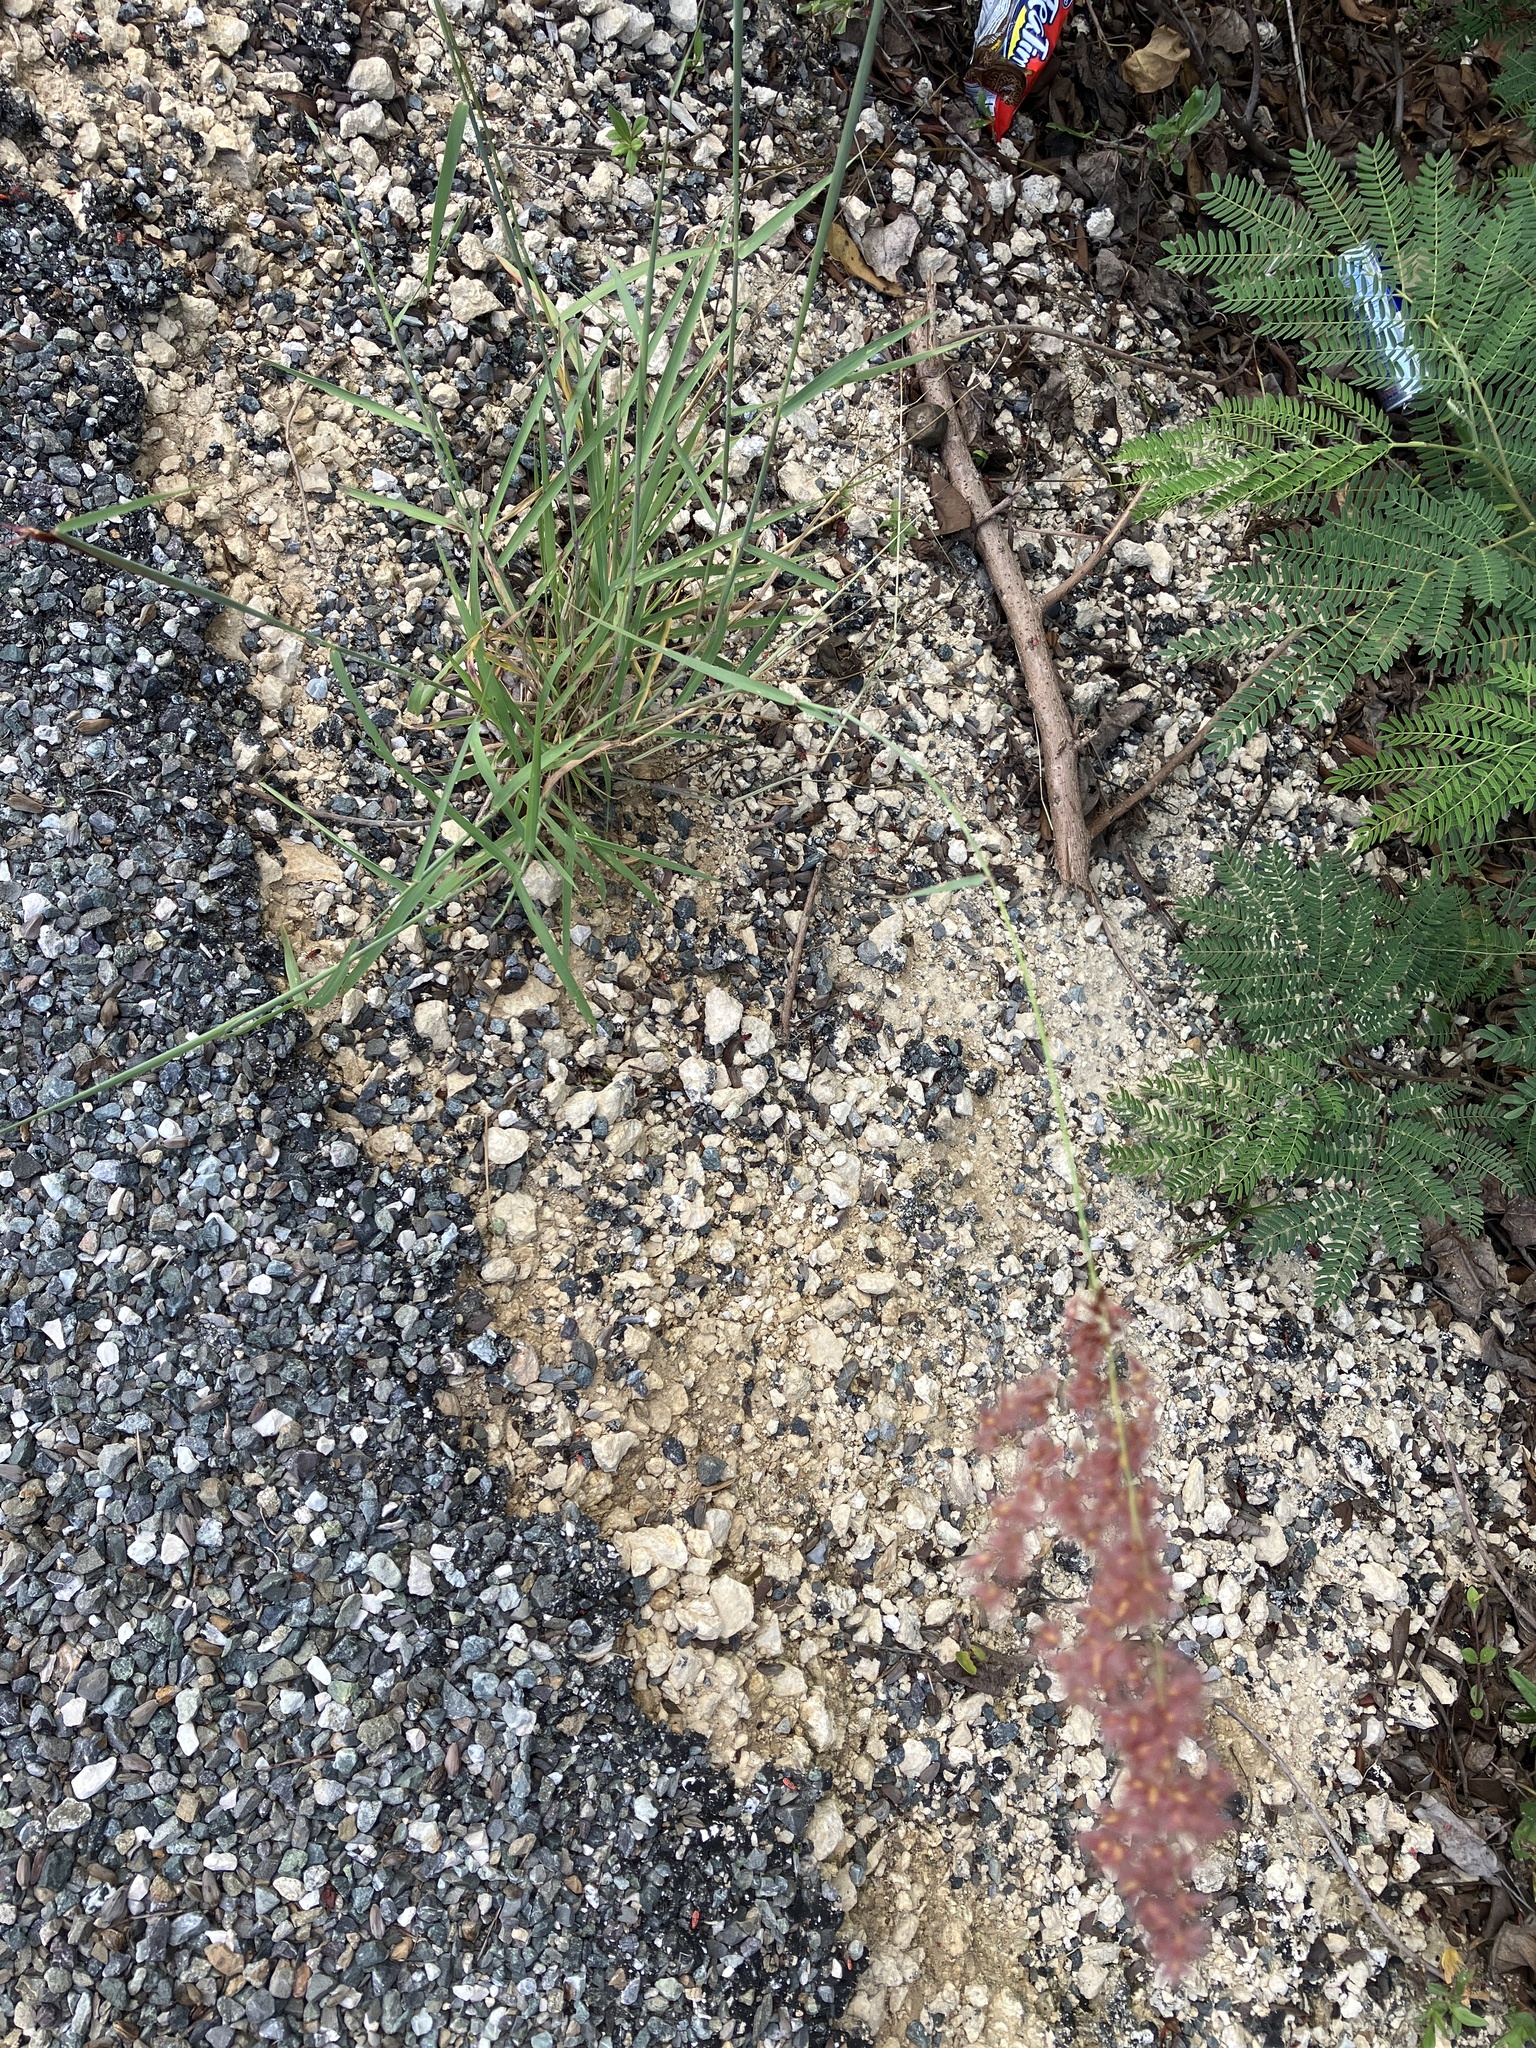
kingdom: Plantae
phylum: Tracheophyta
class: Liliopsida
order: Poales
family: Poaceae
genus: Melinis
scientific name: Melinis repens
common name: Rose natal grass
